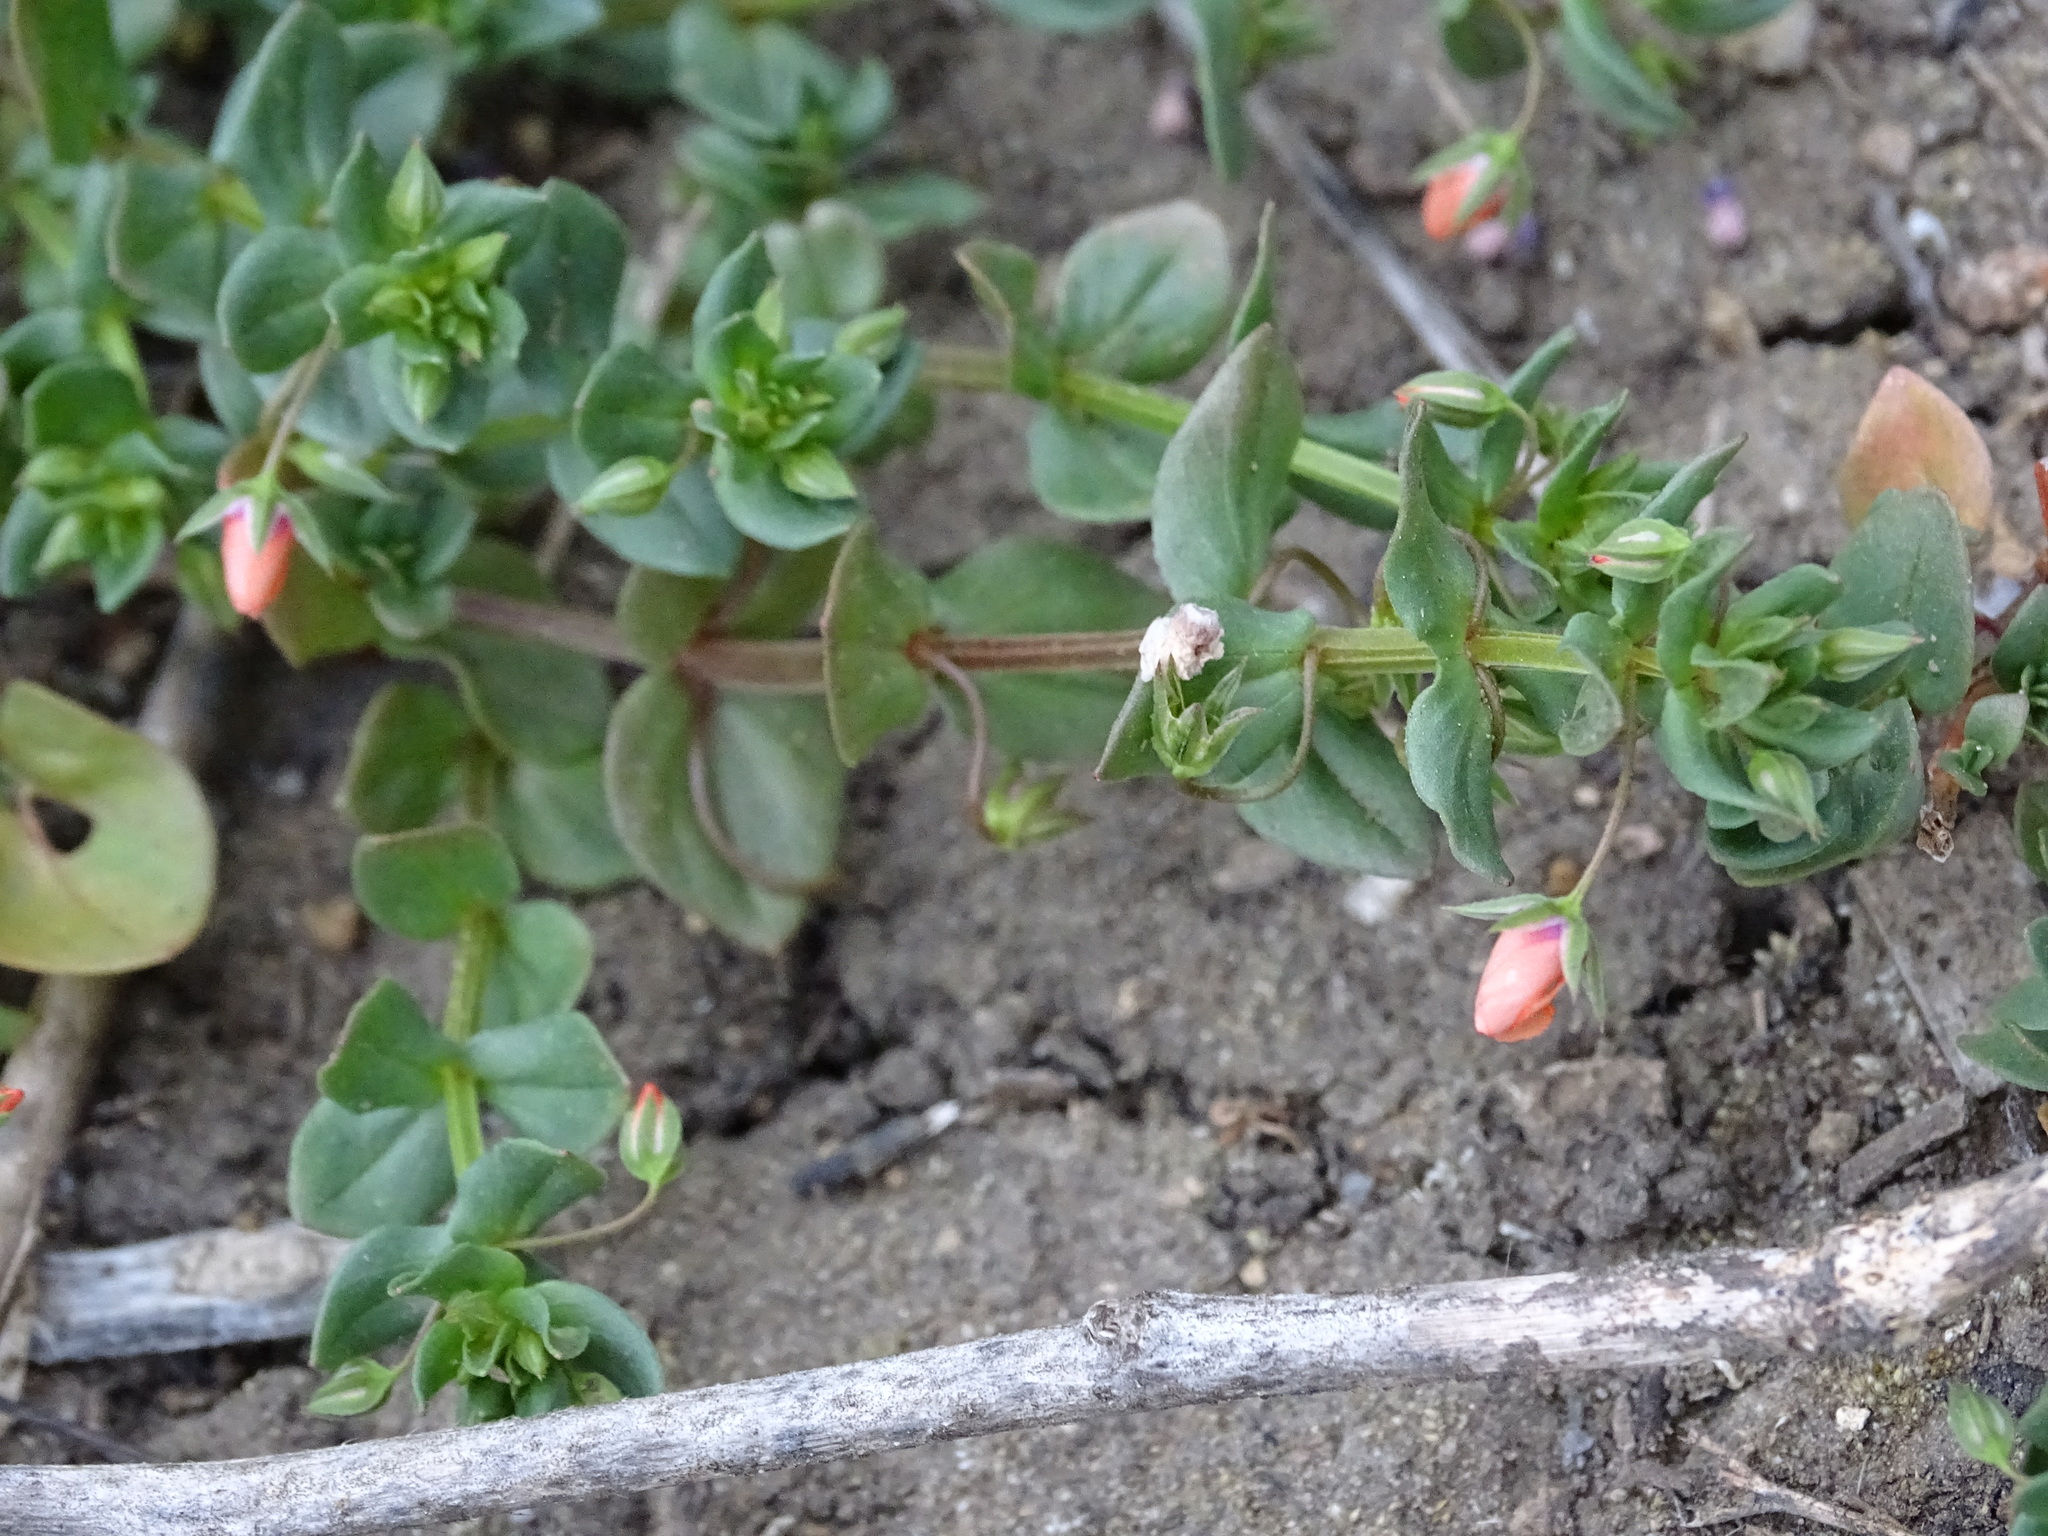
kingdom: Plantae
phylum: Tracheophyta
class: Magnoliopsida
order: Ericales
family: Primulaceae
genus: Lysimachia
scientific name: Lysimachia arvensis
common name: Scarlet pimpernel
